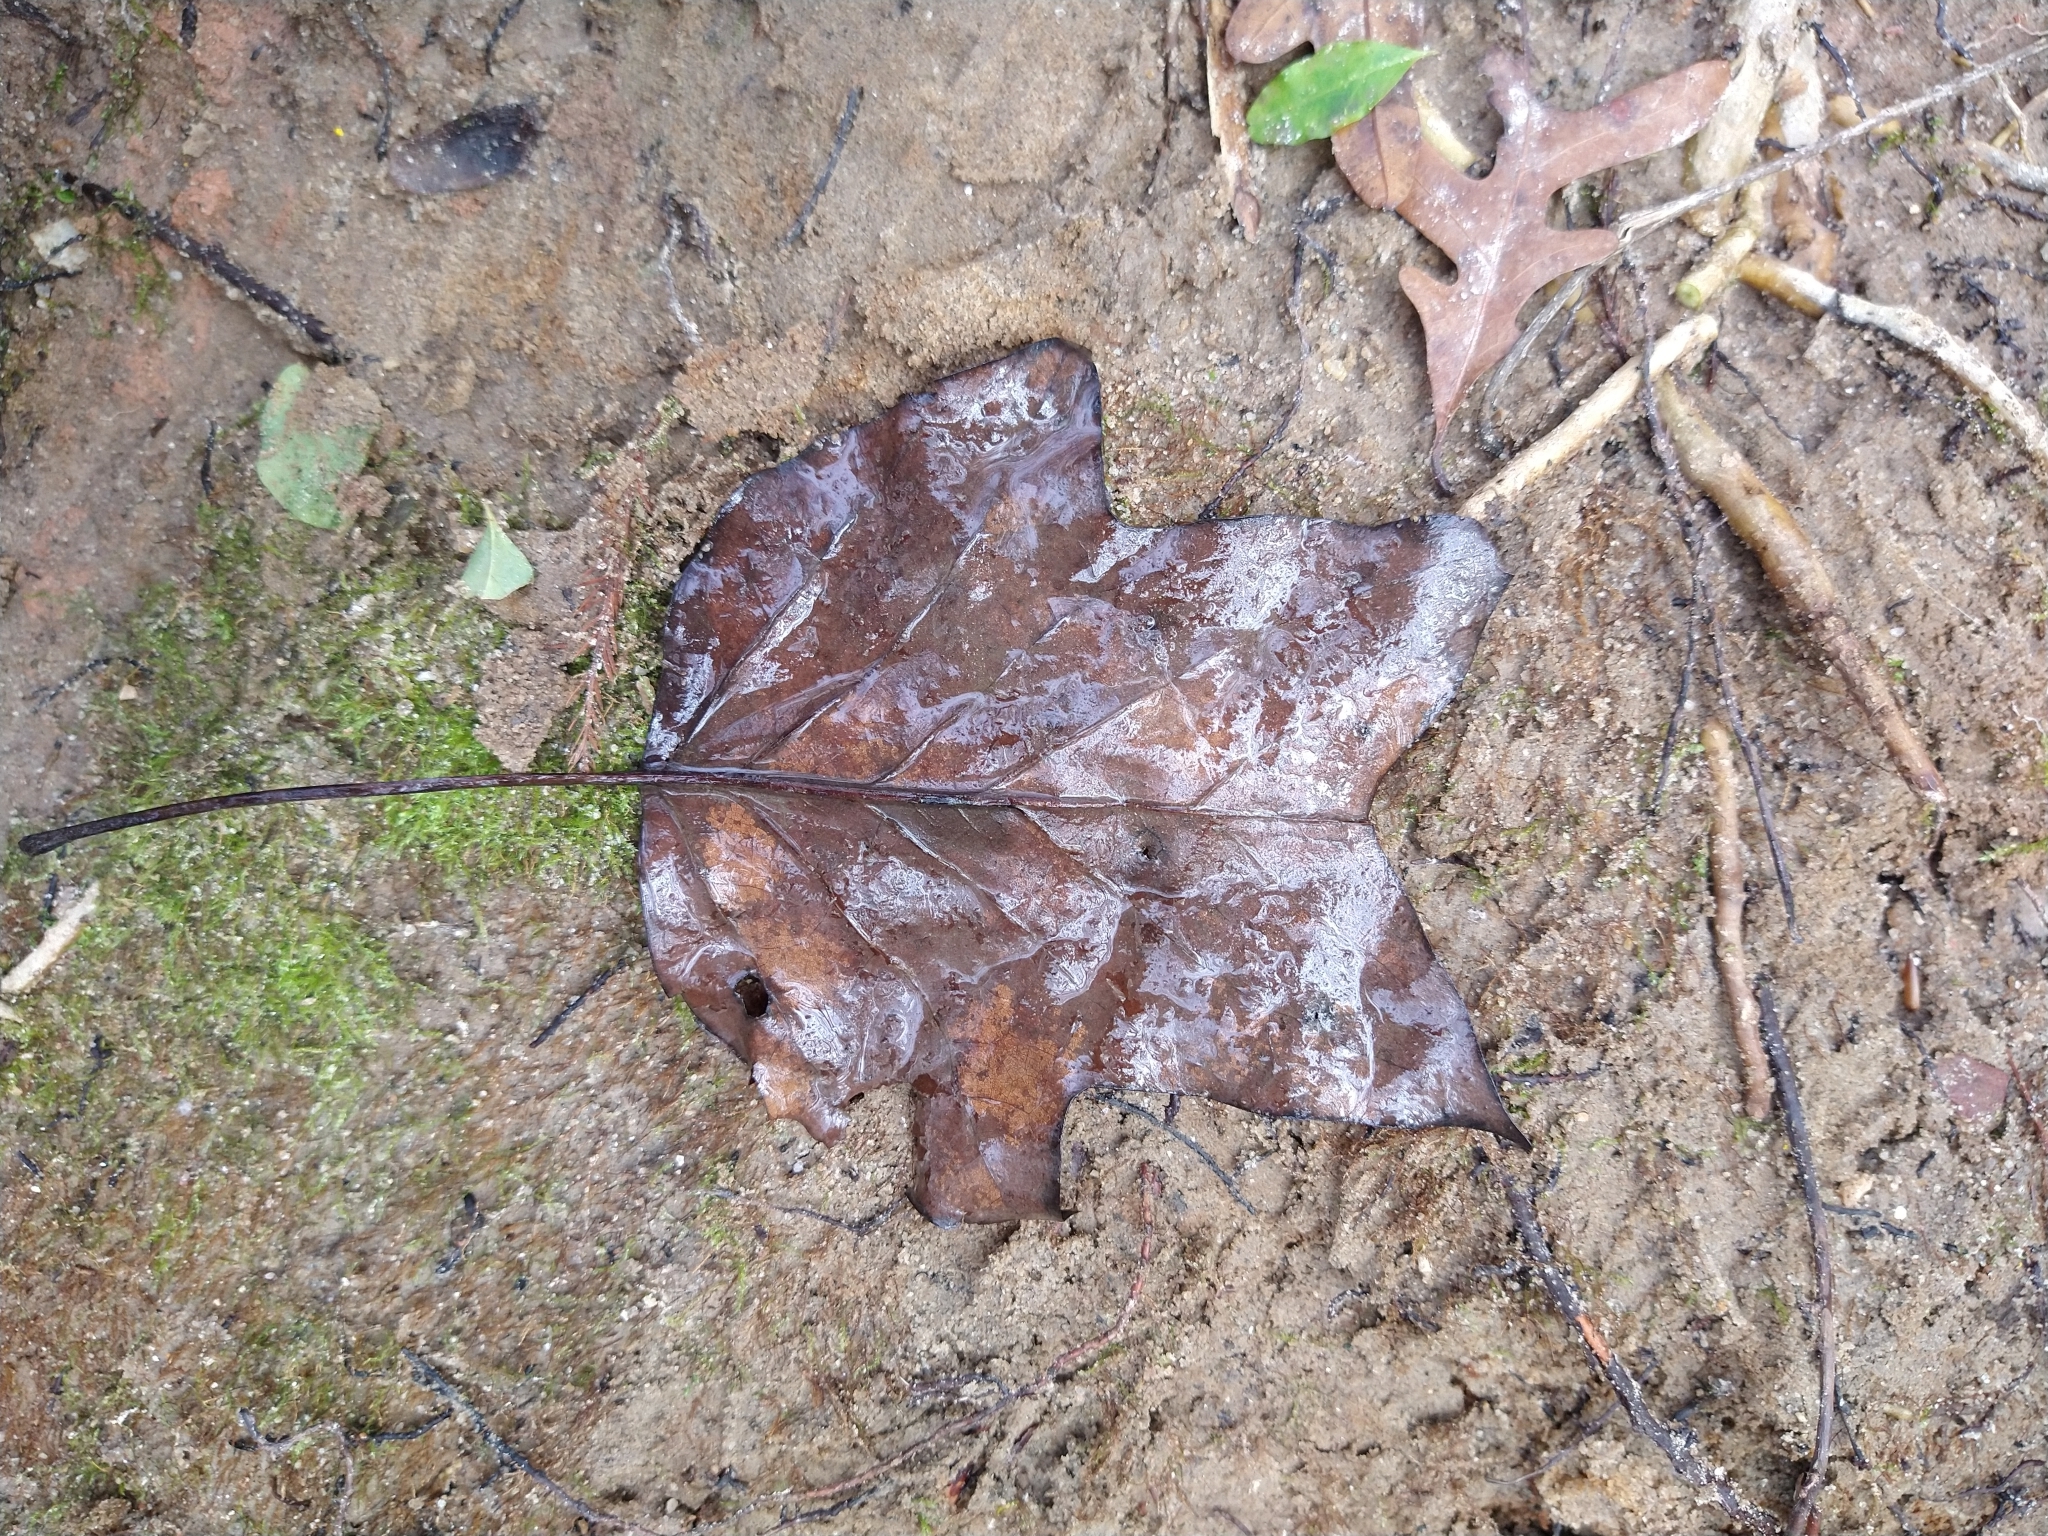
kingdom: Plantae
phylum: Tracheophyta
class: Magnoliopsida
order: Magnoliales
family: Magnoliaceae
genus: Liriodendron
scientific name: Liriodendron tulipifera
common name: Tulip tree
